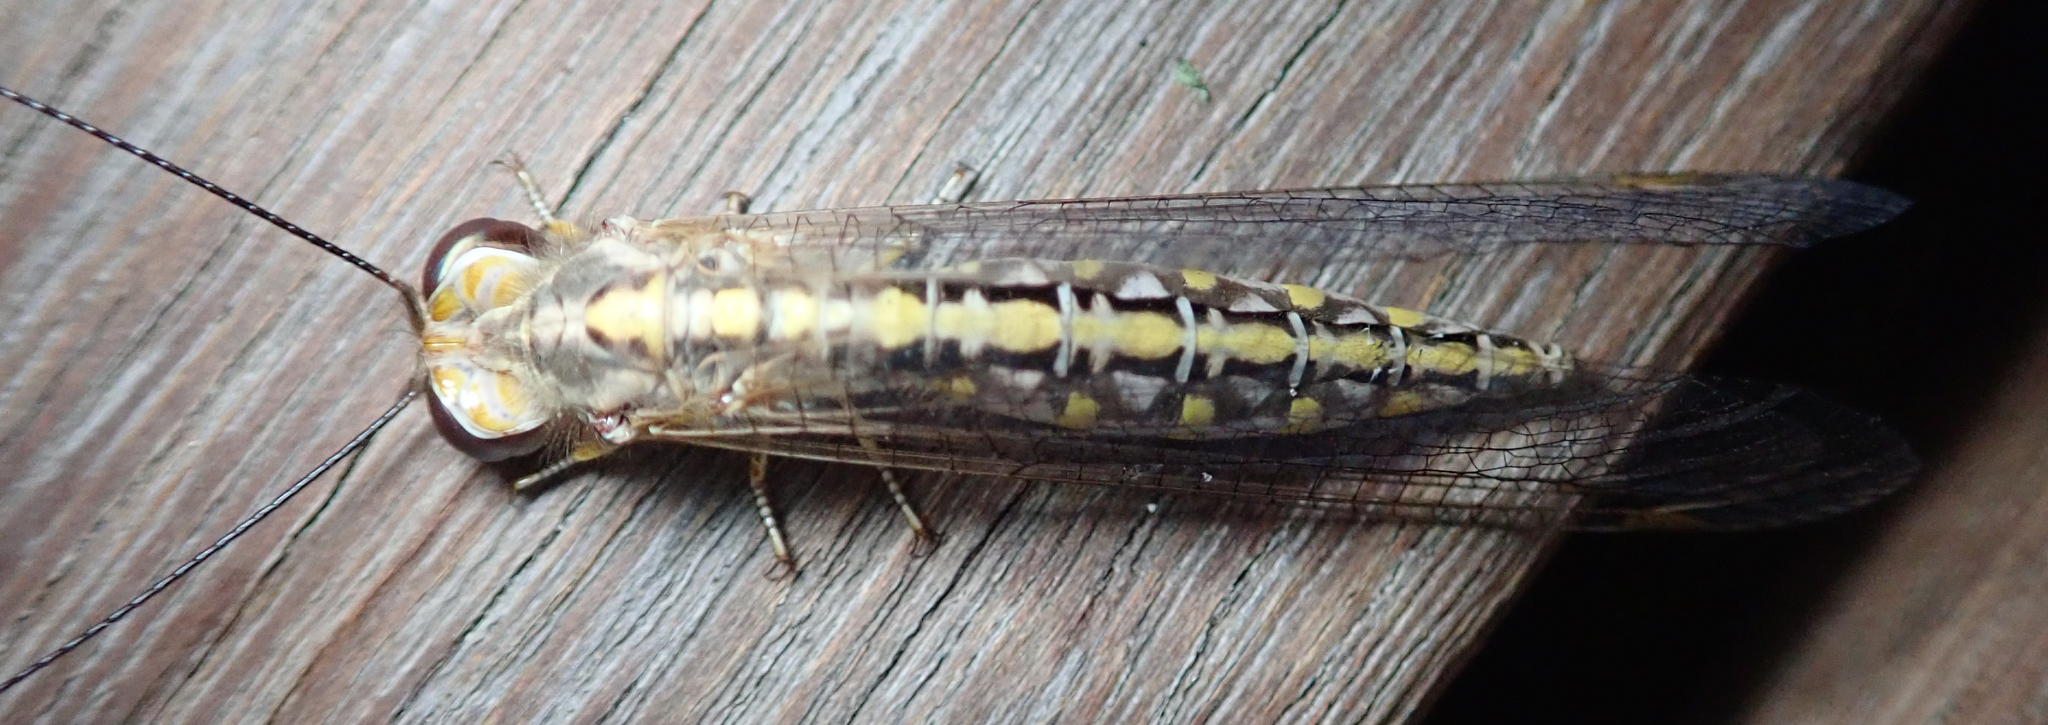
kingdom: Animalia
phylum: Arthropoda
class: Insecta
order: Neuroptera
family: Ascalaphidae
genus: Ascalaphus
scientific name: Ascalaphus festivus
